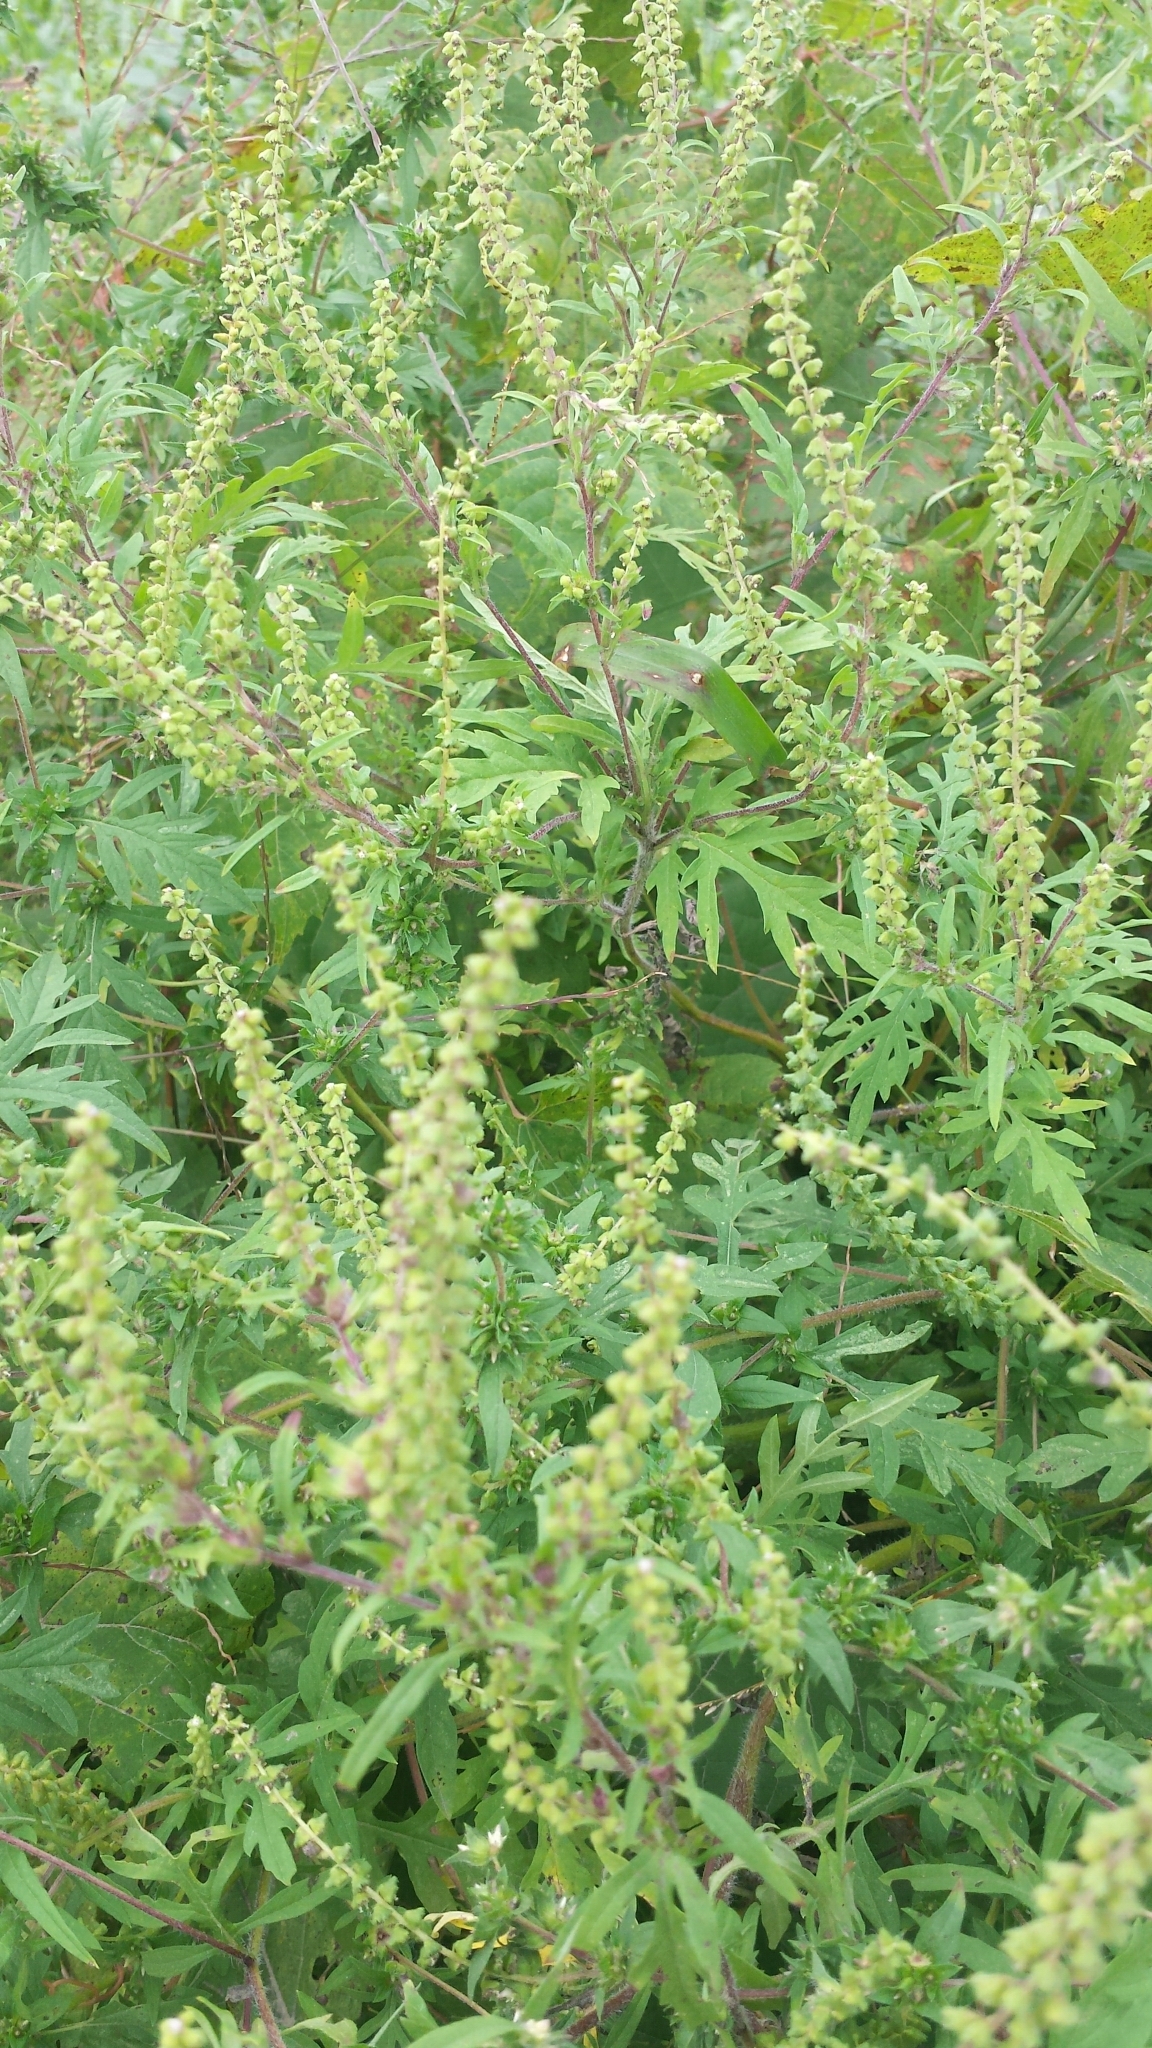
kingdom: Plantae
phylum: Tracheophyta
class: Magnoliopsida
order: Asterales
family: Asteraceae
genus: Ambrosia
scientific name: Ambrosia artemisiifolia
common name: Annual ragweed
